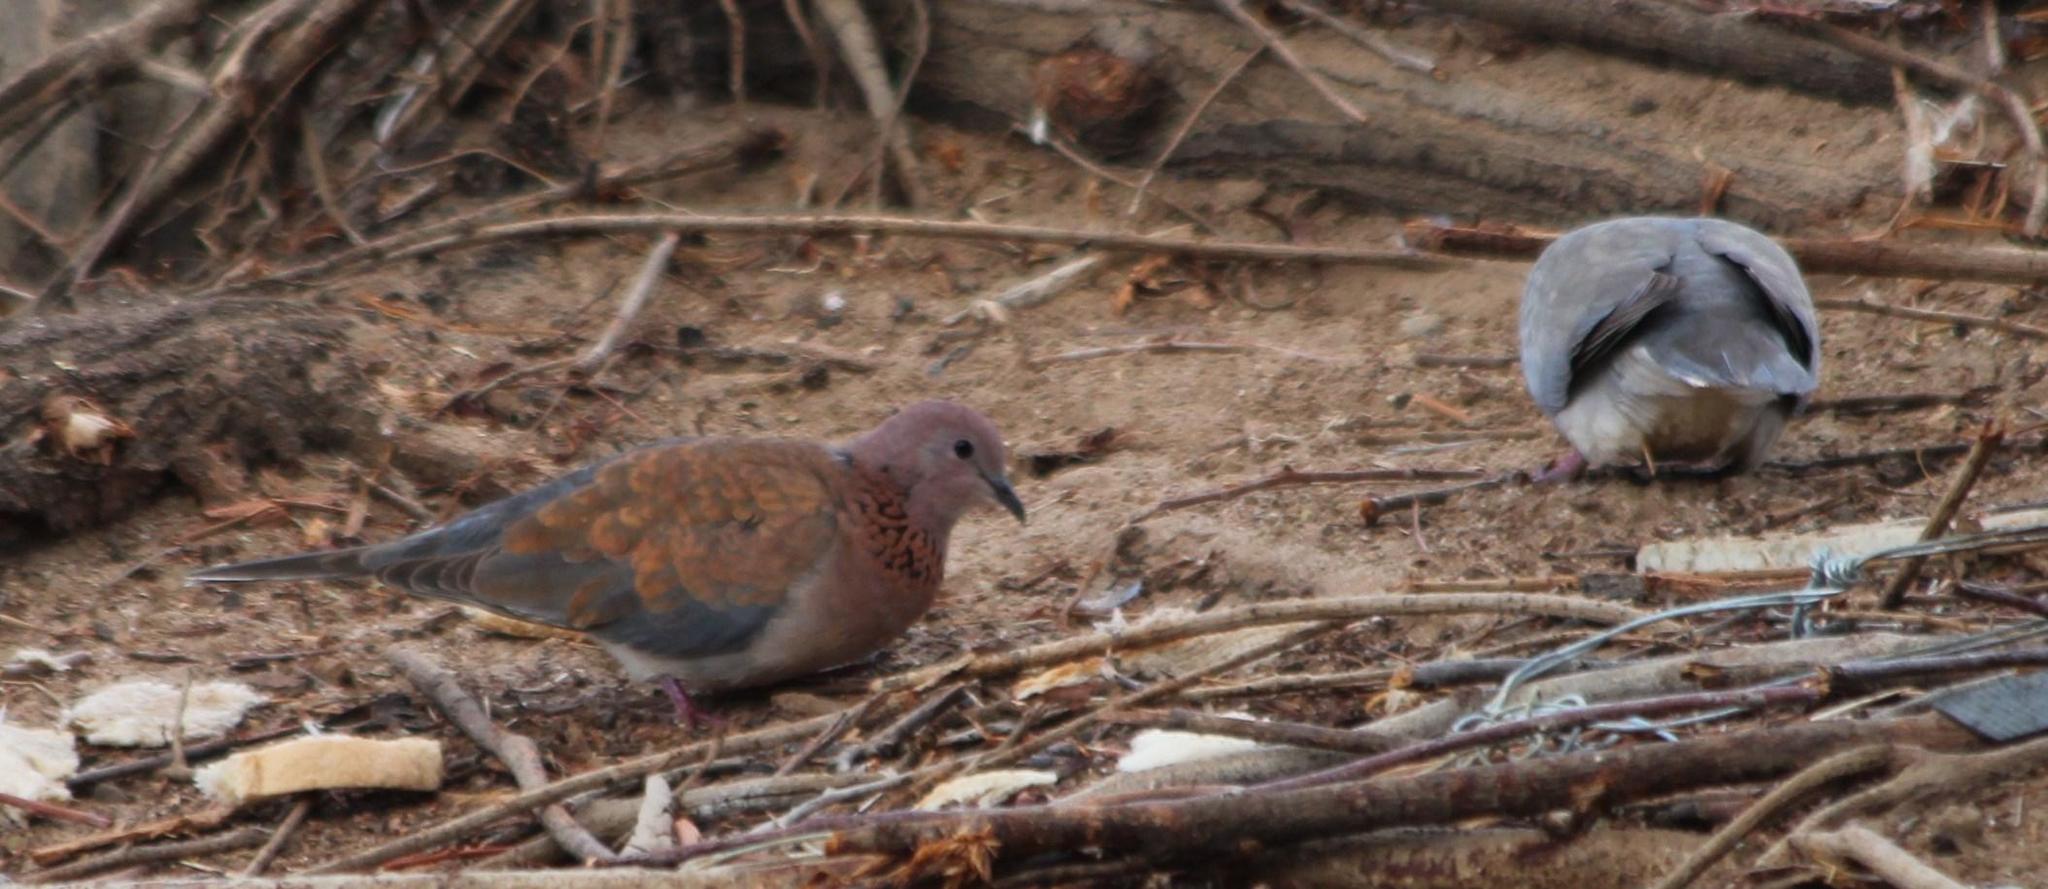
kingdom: Animalia
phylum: Chordata
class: Aves
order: Columbiformes
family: Columbidae
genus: Spilopelia
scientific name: Spilopelia senegalensis
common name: Laughing dove
